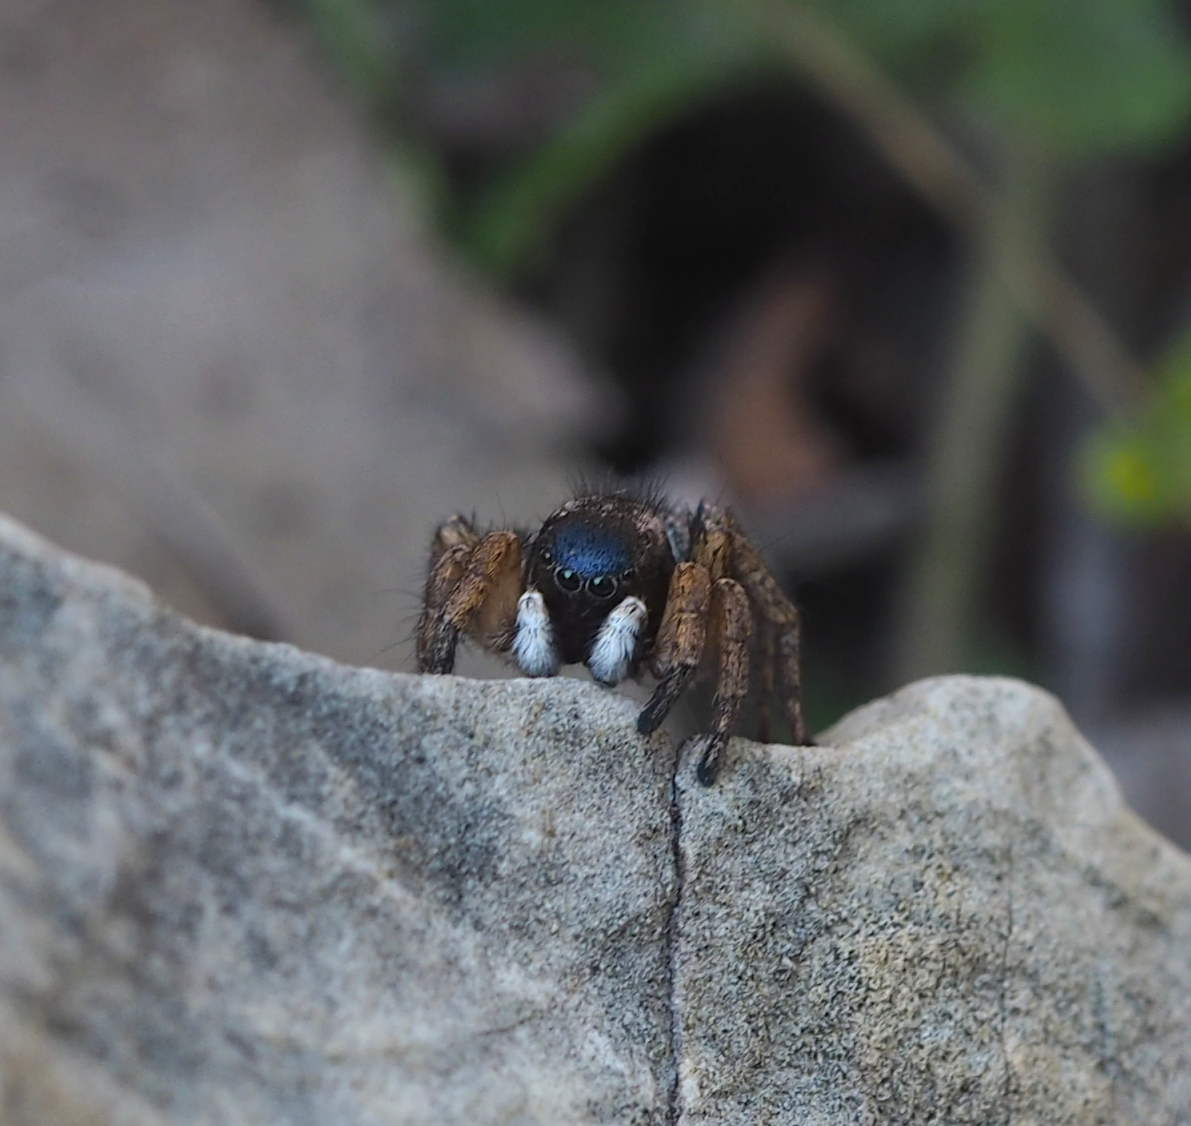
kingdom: Animalia
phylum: Arthropoda
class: Arachnida
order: Araneae
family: Salticidae
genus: Asianellus
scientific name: Asianellus festivus
